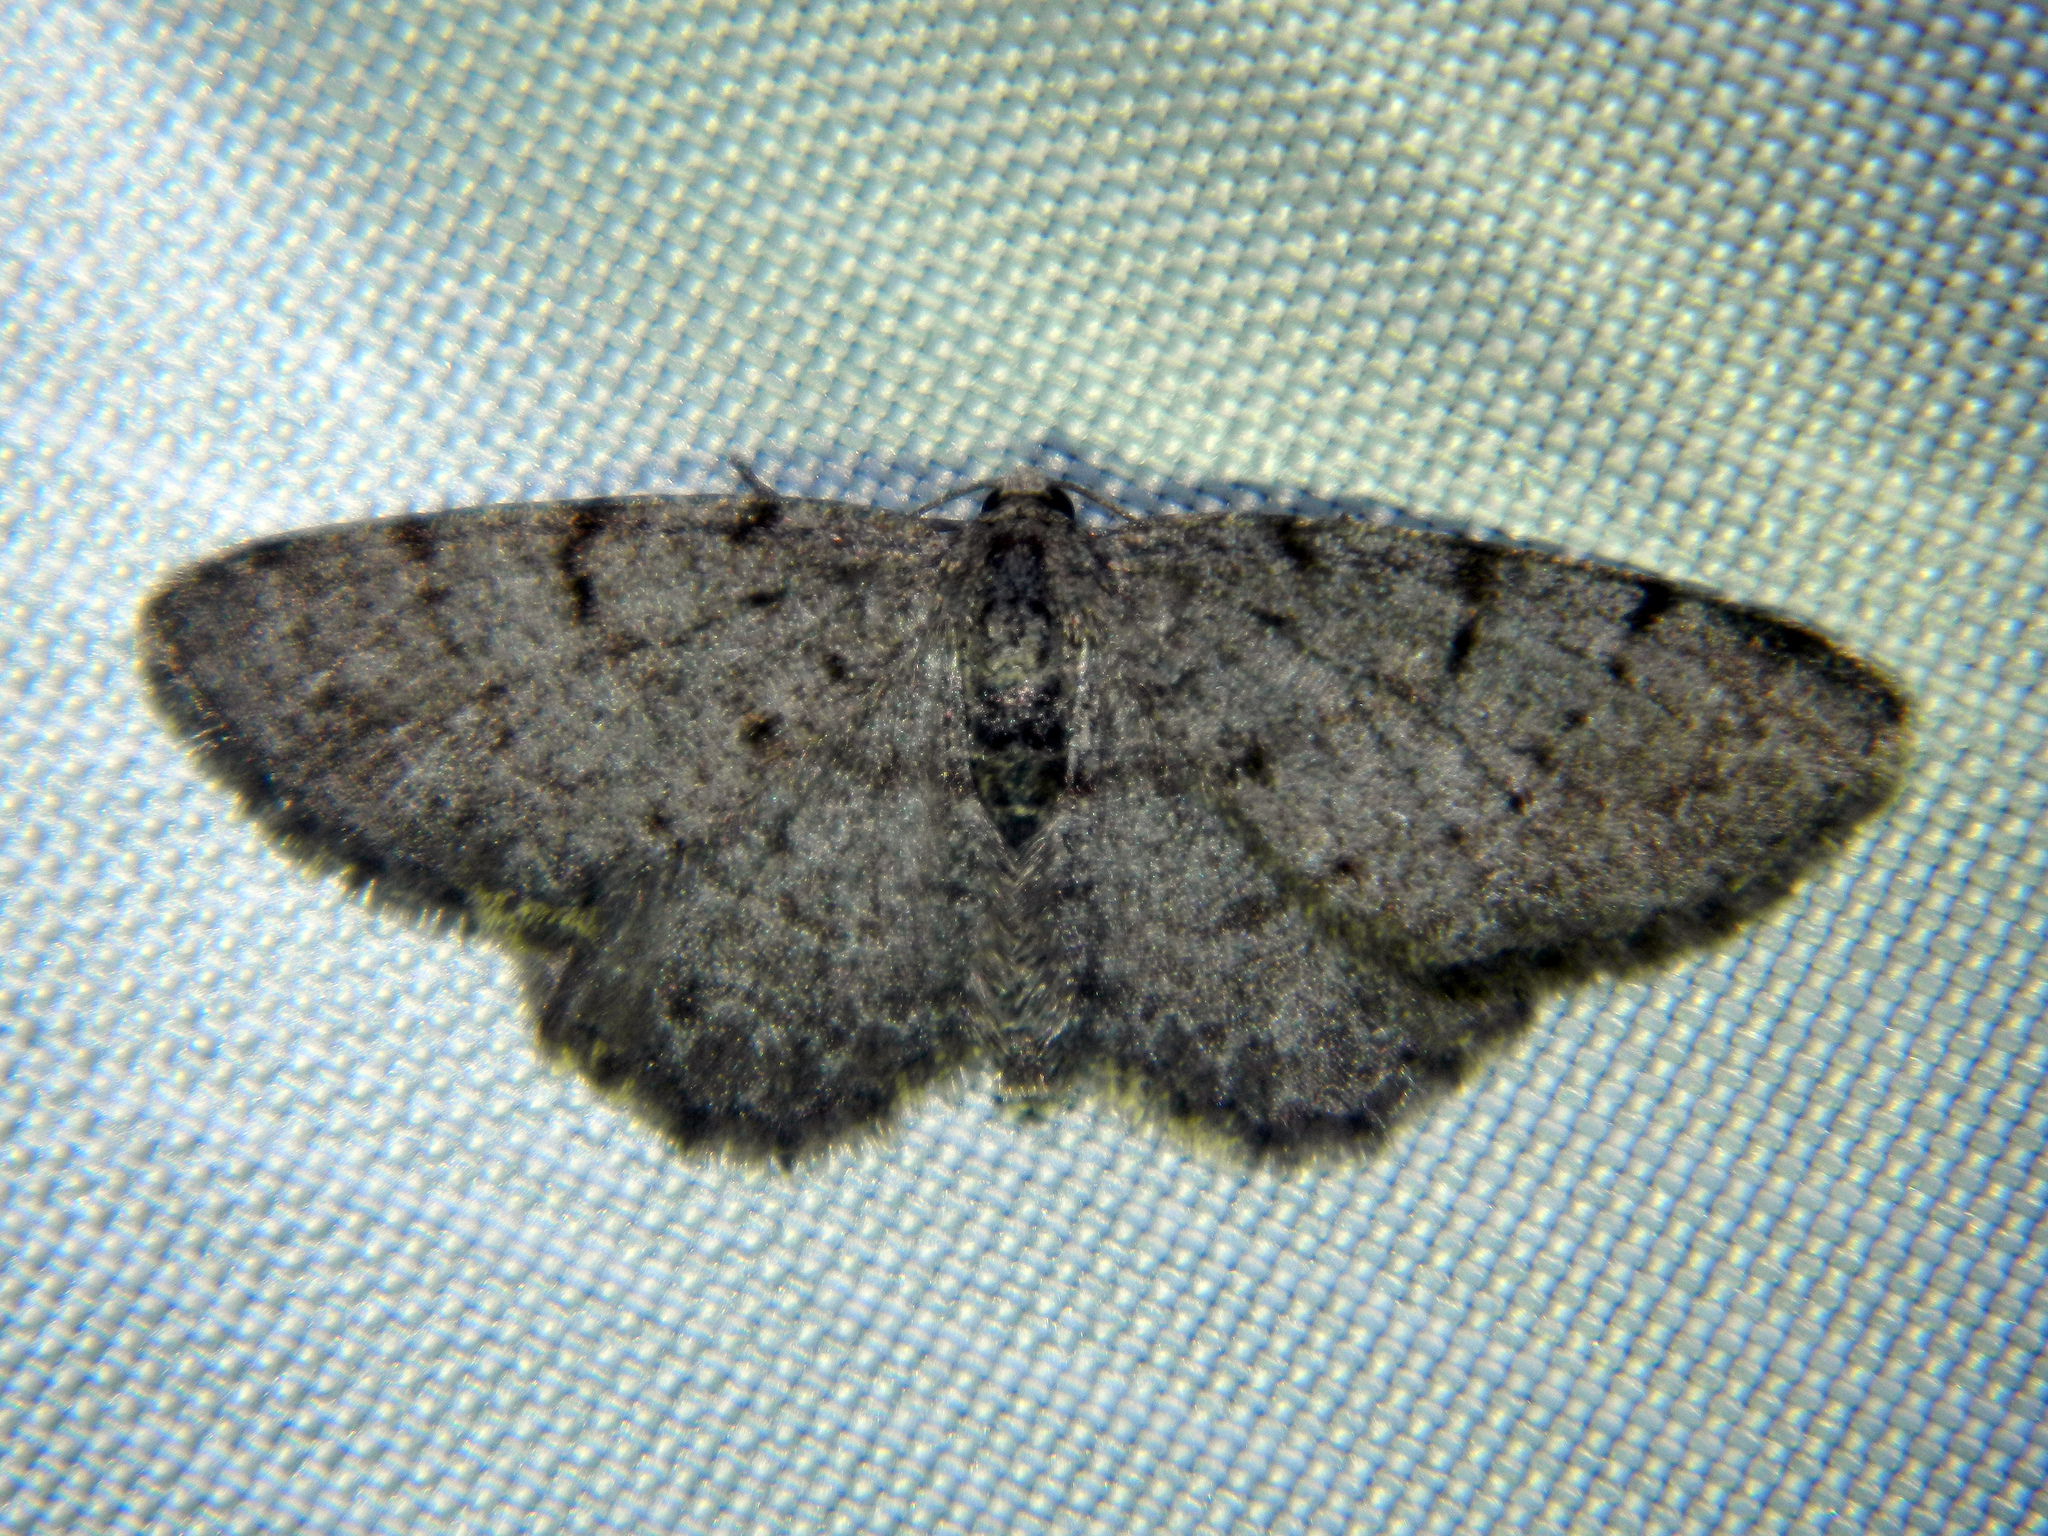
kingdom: Animalia
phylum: Arthropoda
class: Insecta
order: Lepidoptera
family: Geometridae
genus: Aethalura
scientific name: Aethalura intertexta
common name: Four-barred gray
